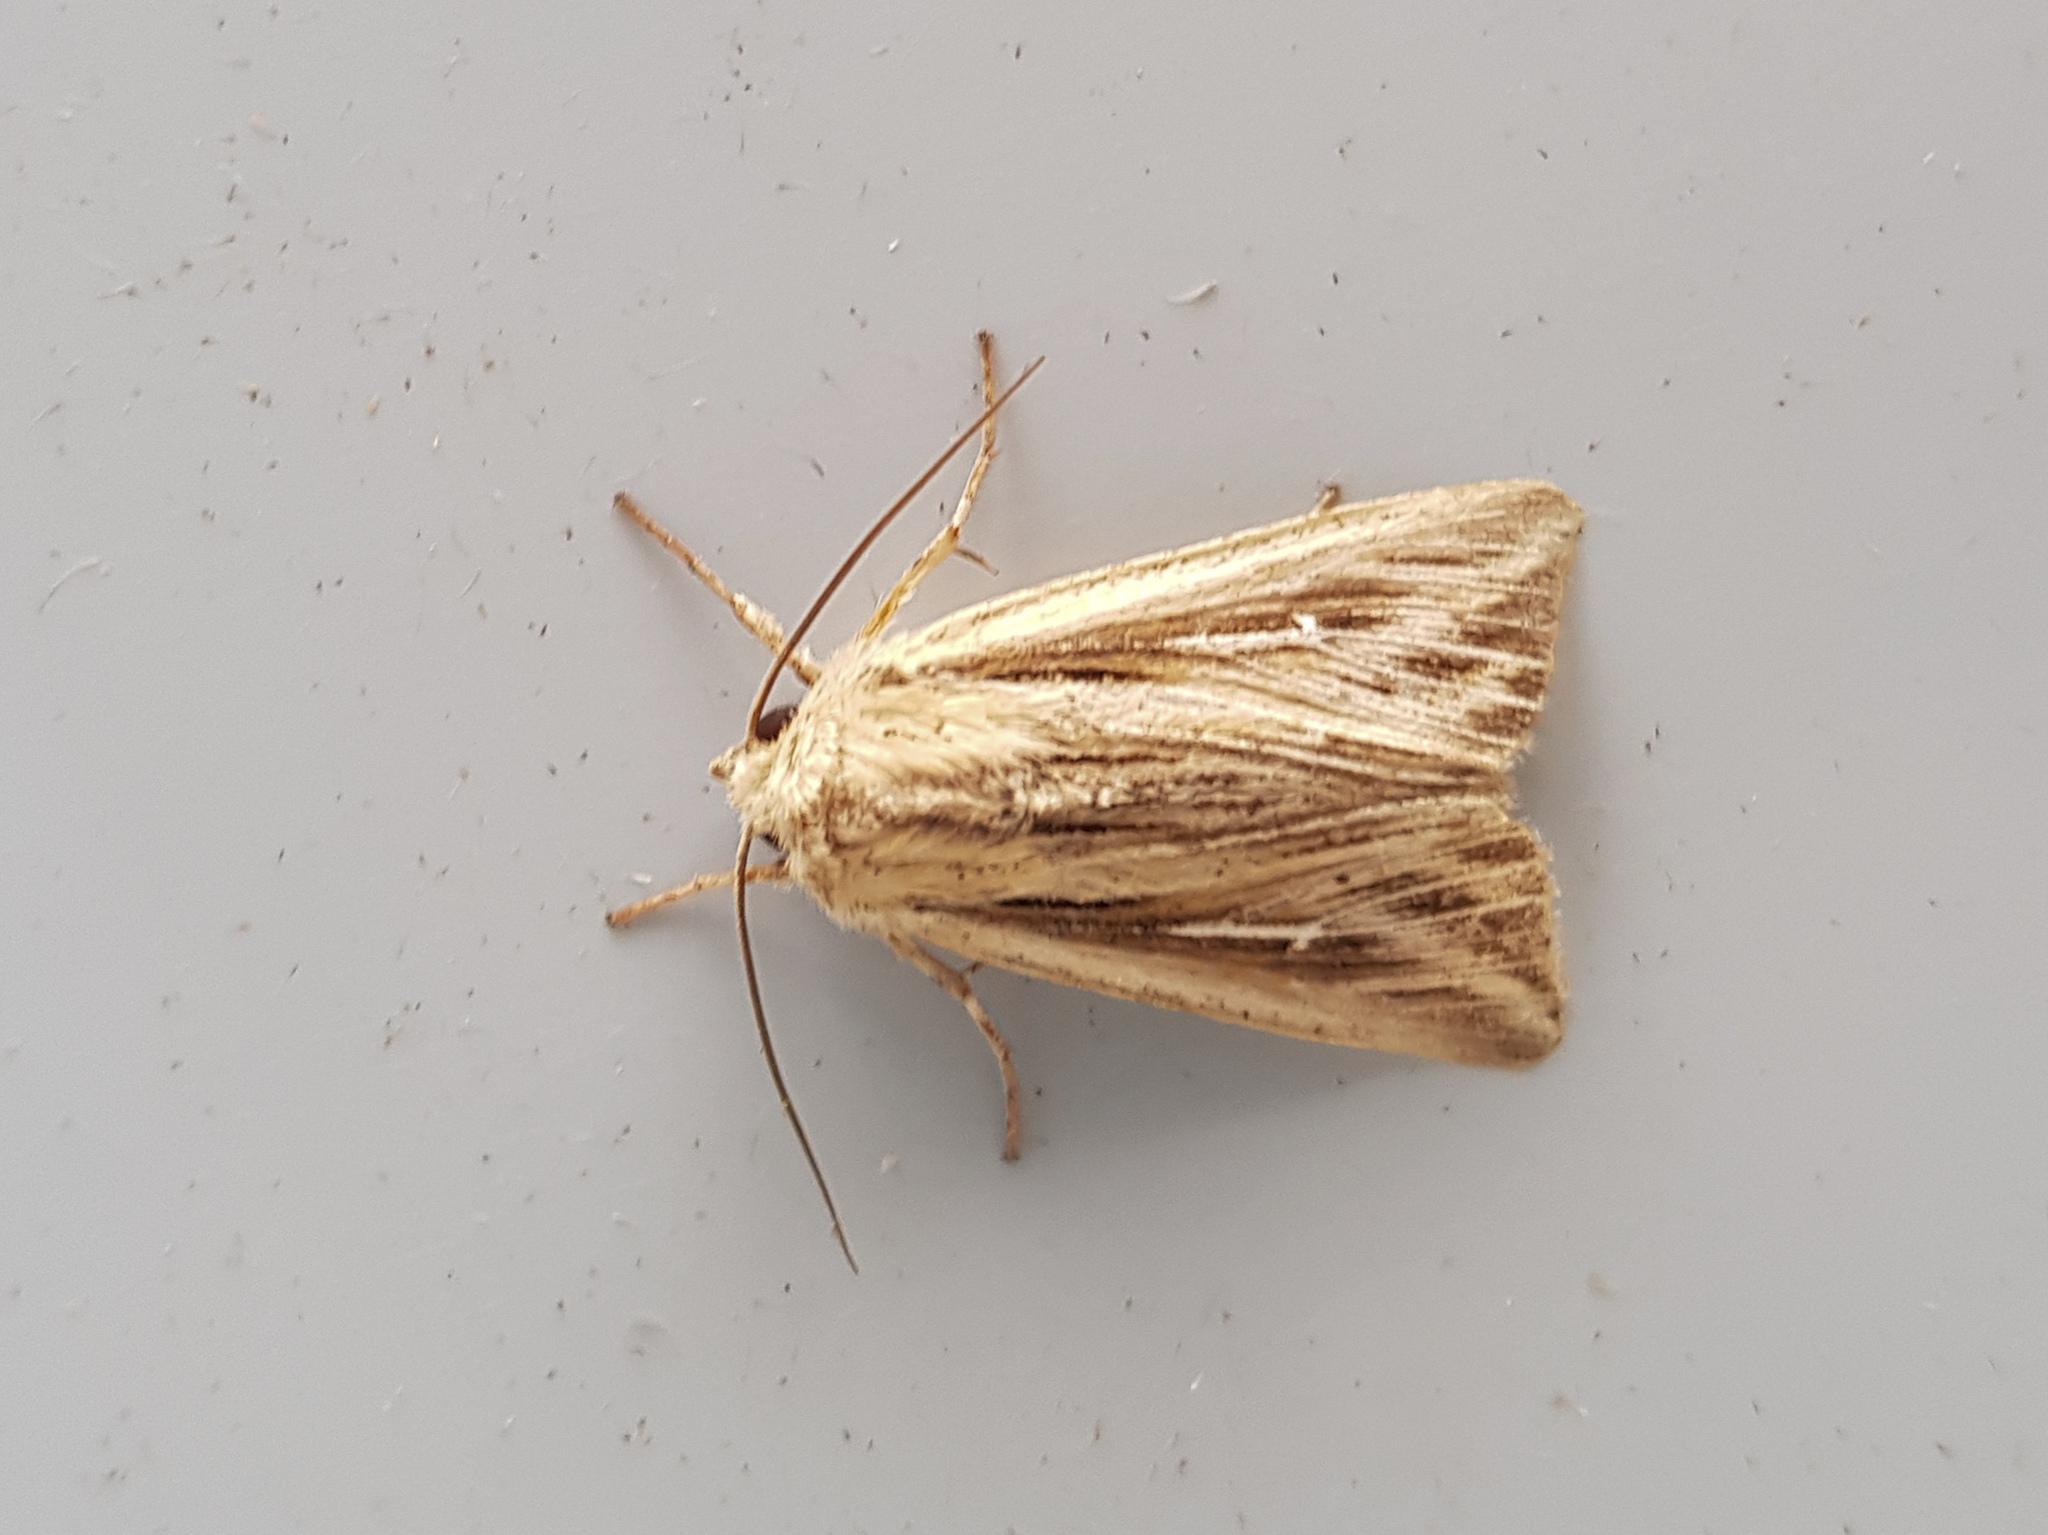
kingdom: Animalia
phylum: Arthropoda
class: Insecta
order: Lepidoptera
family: Noctuidae
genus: Mythimna
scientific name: Mythimna l-album
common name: L-album wainscot
